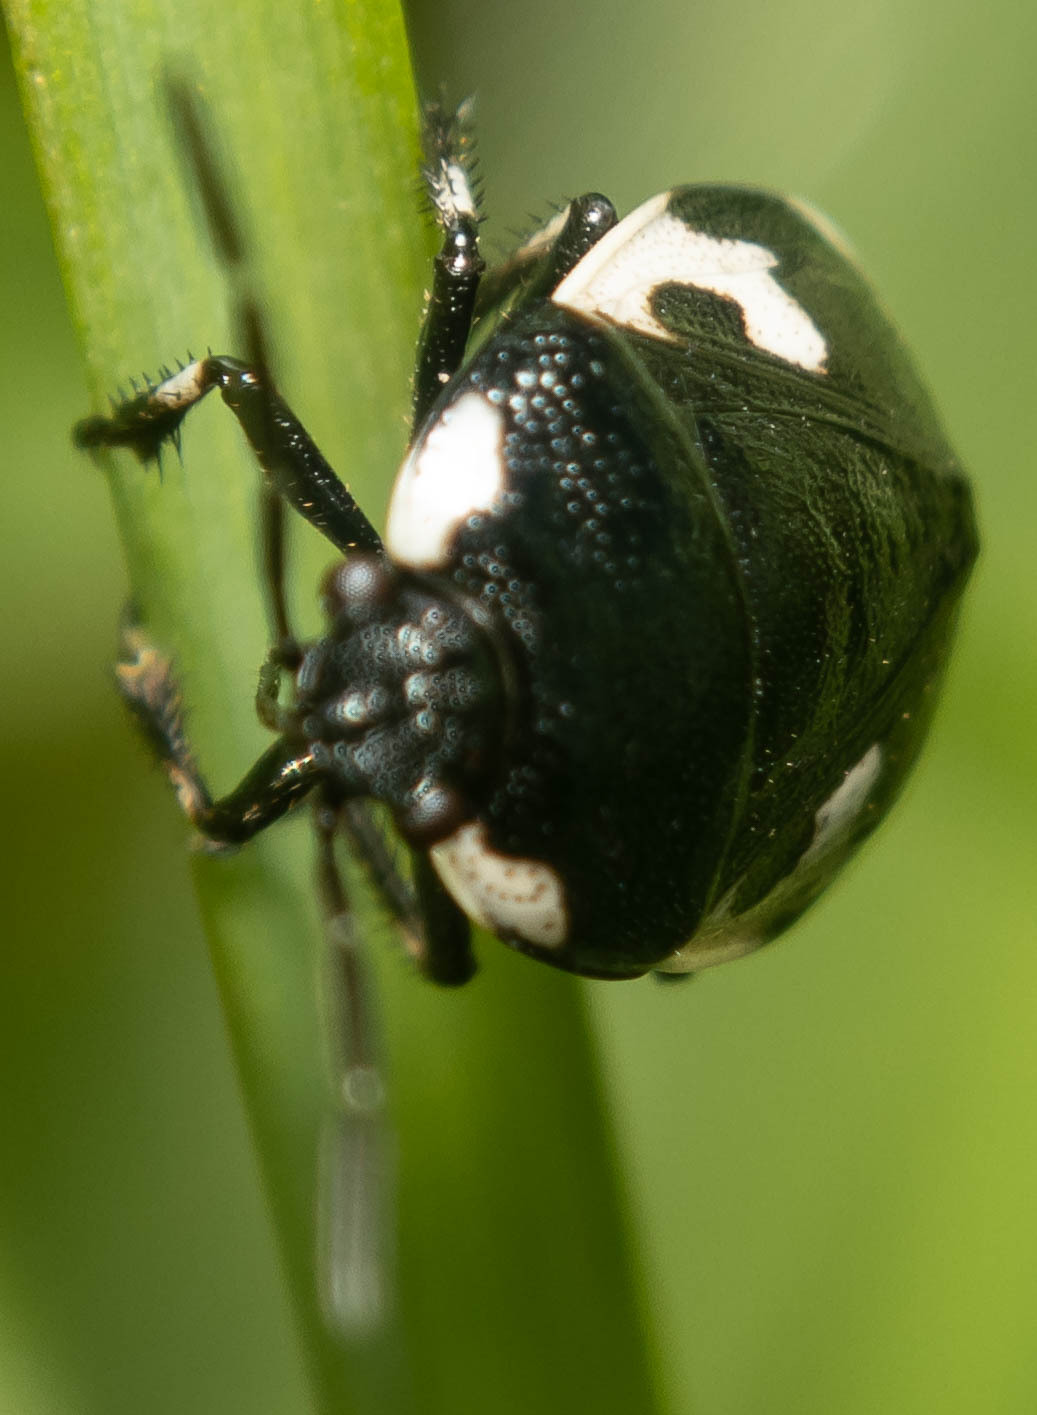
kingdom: Animalia
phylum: Arthropoda
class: Insecta
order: Hemiptera
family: Cydnidae
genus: Tritomegas
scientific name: Tritomegas bicolor
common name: Pied shieldbug
